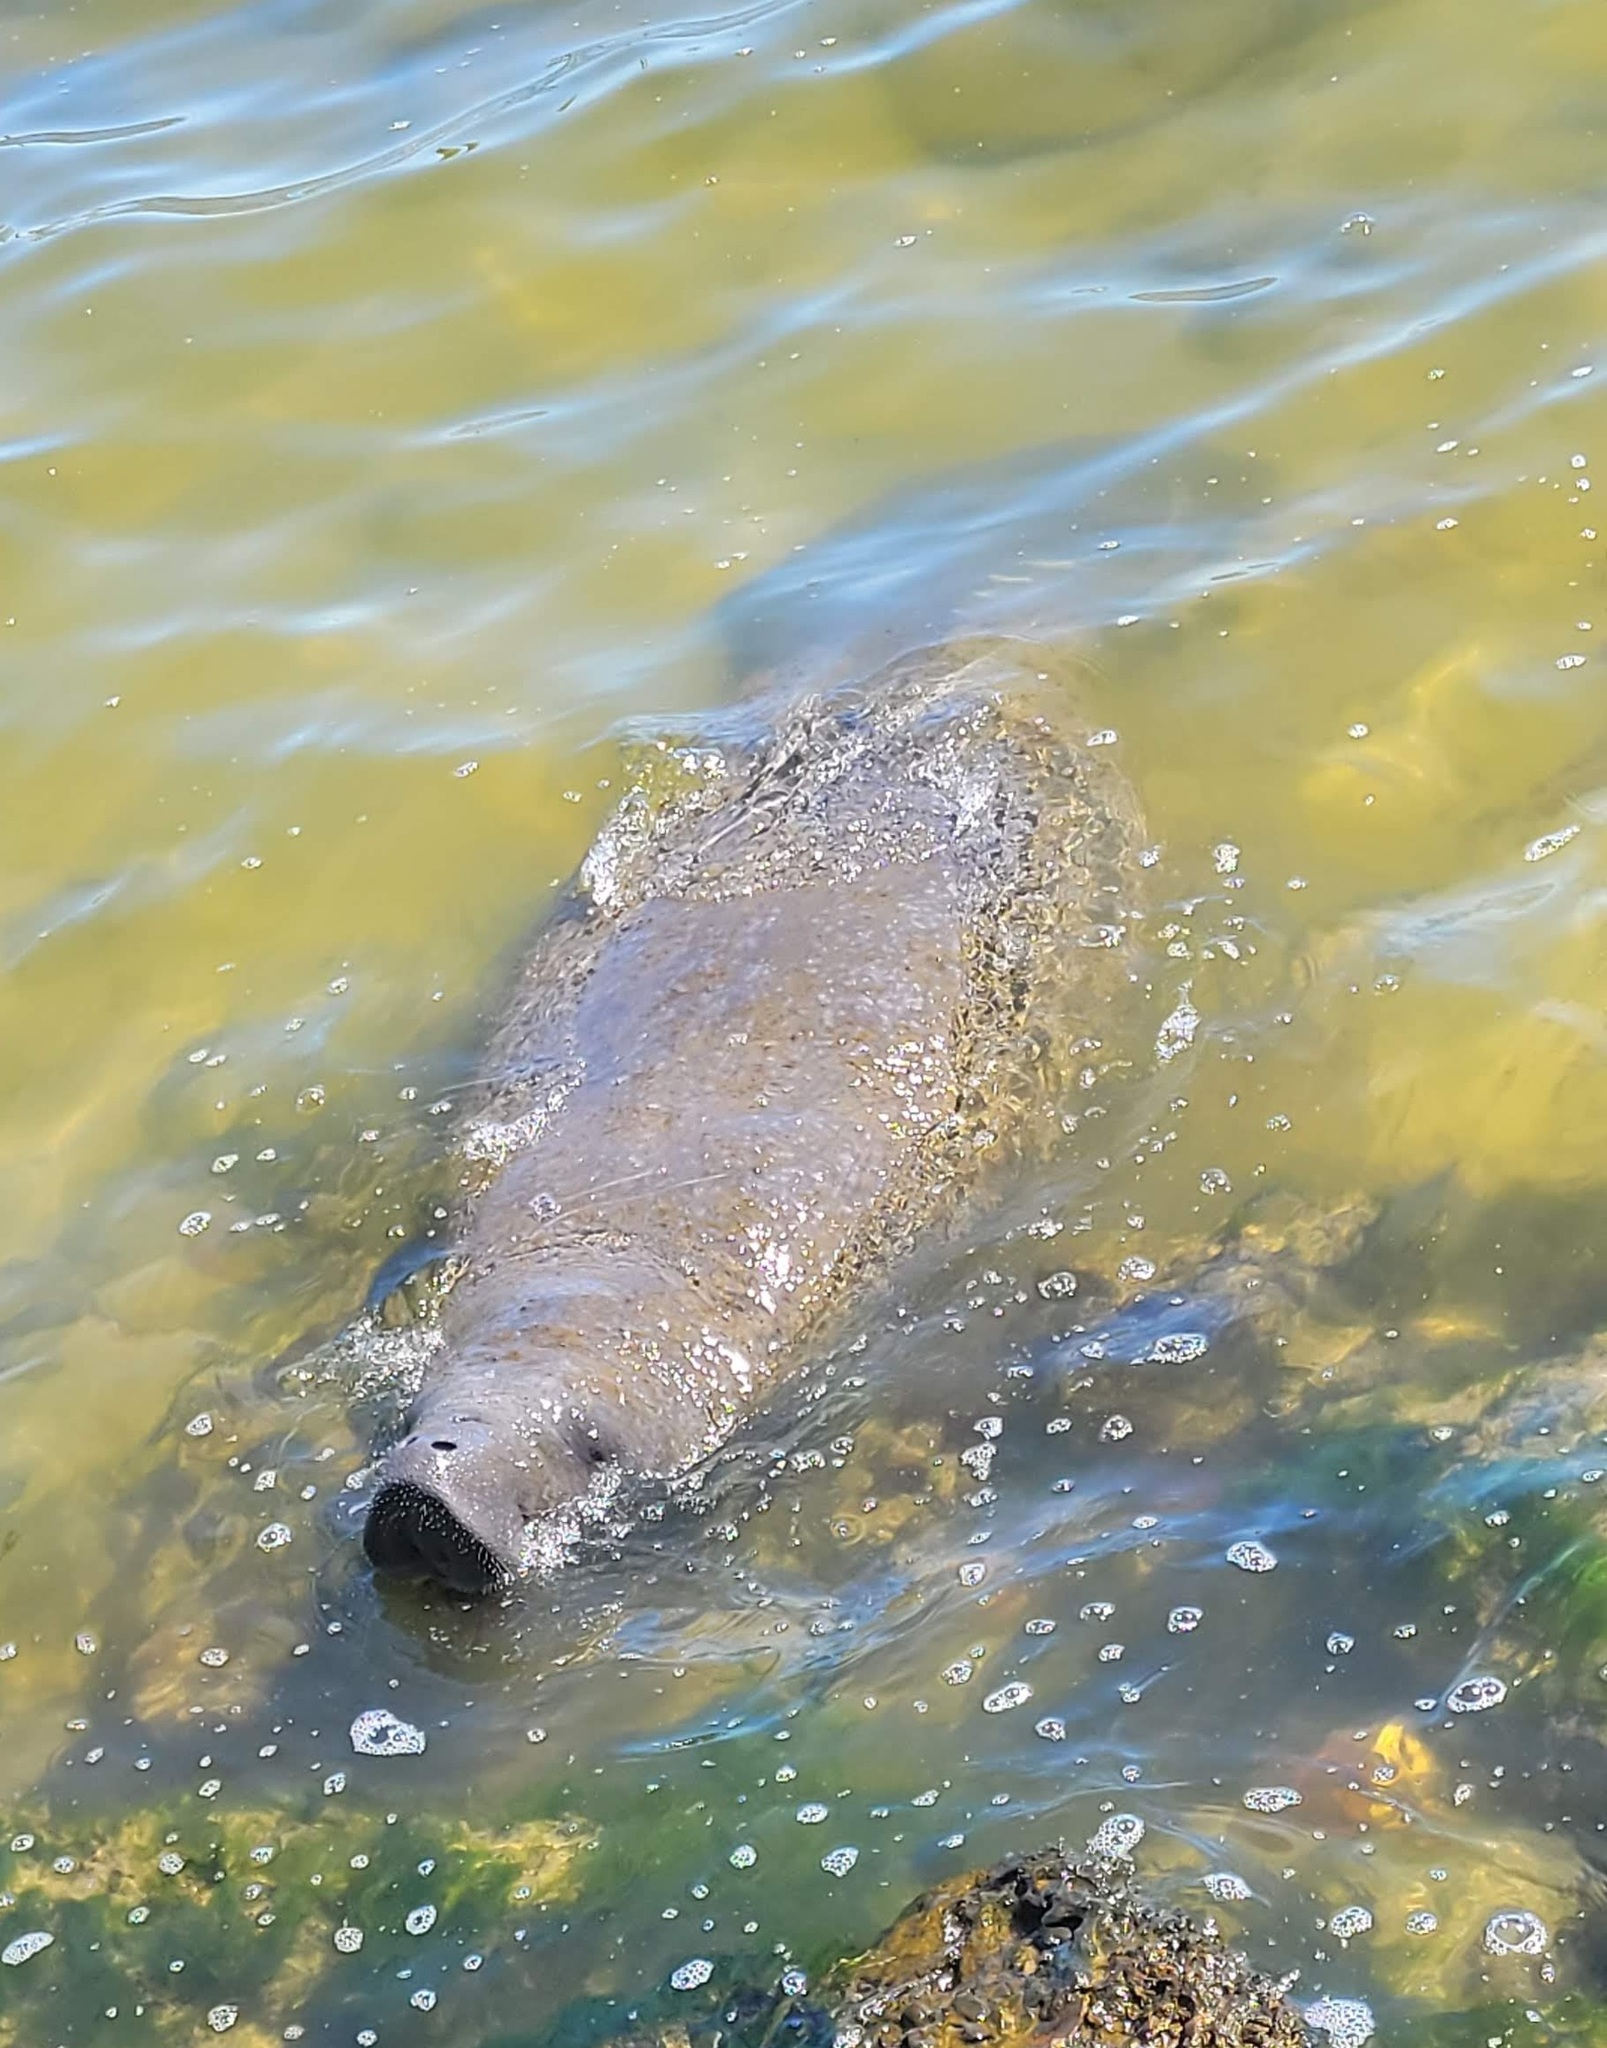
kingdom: Animalia
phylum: Chordata
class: Mammalia
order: Sirenia
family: Trichechidae
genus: Trichechus
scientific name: Trichechus manatus
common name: West indian manatee
